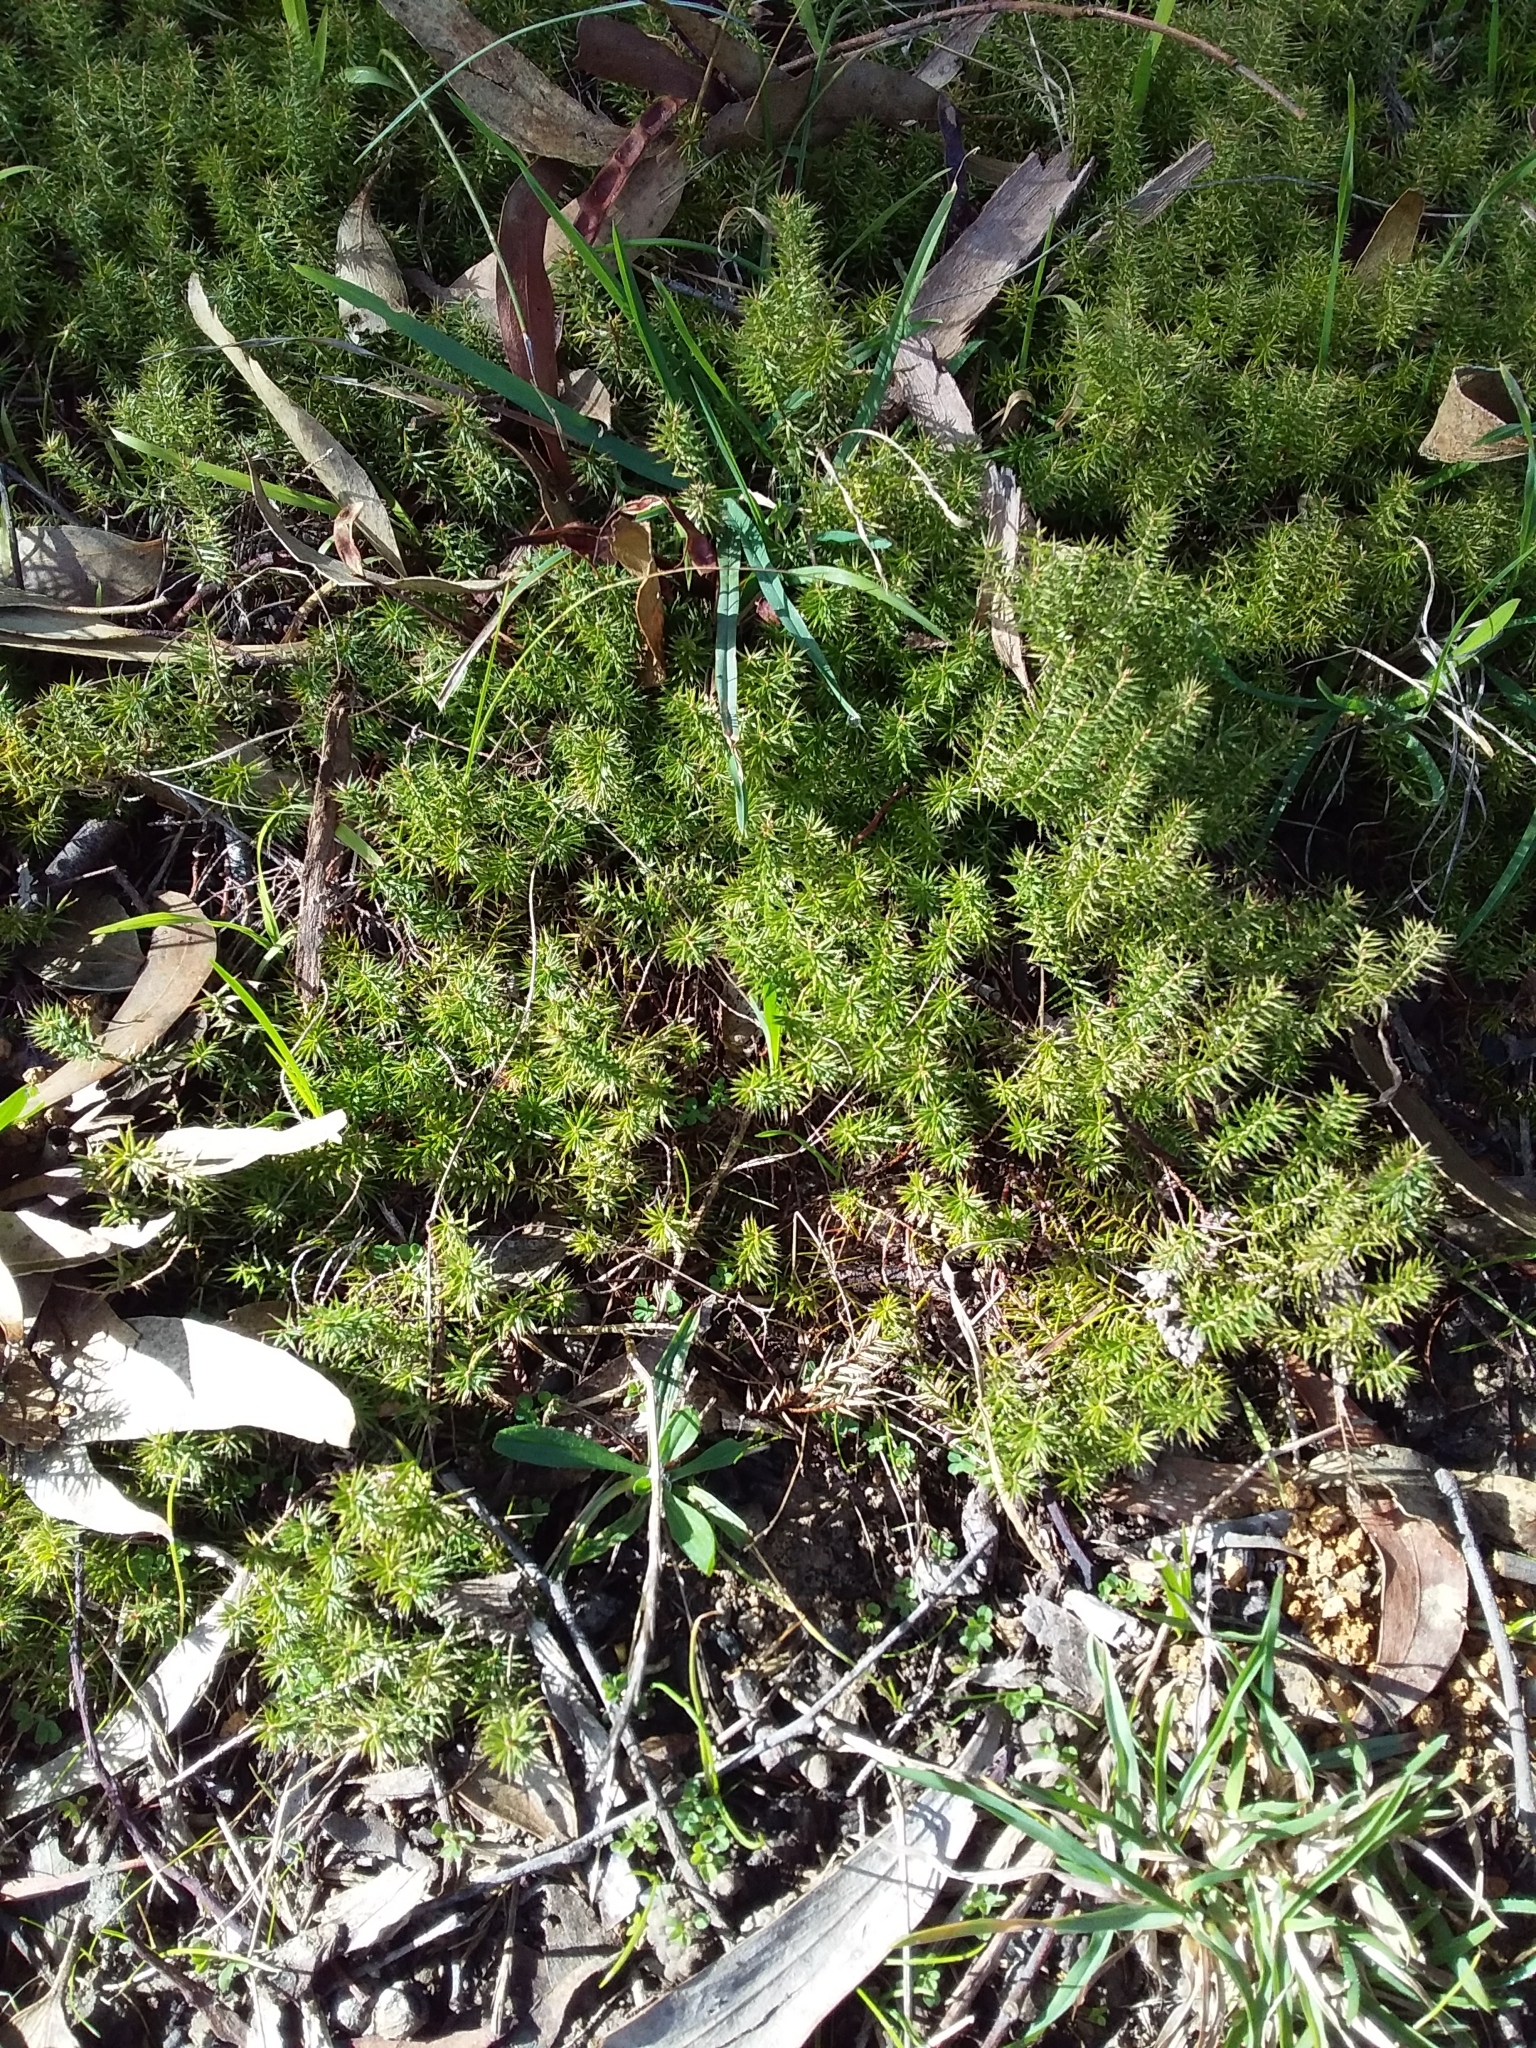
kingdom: Plantae
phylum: Tracheophyta
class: Magnoliopsida
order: Ericales
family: Ericaceae
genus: Acrotriche
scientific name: Acrotriche serrulata
